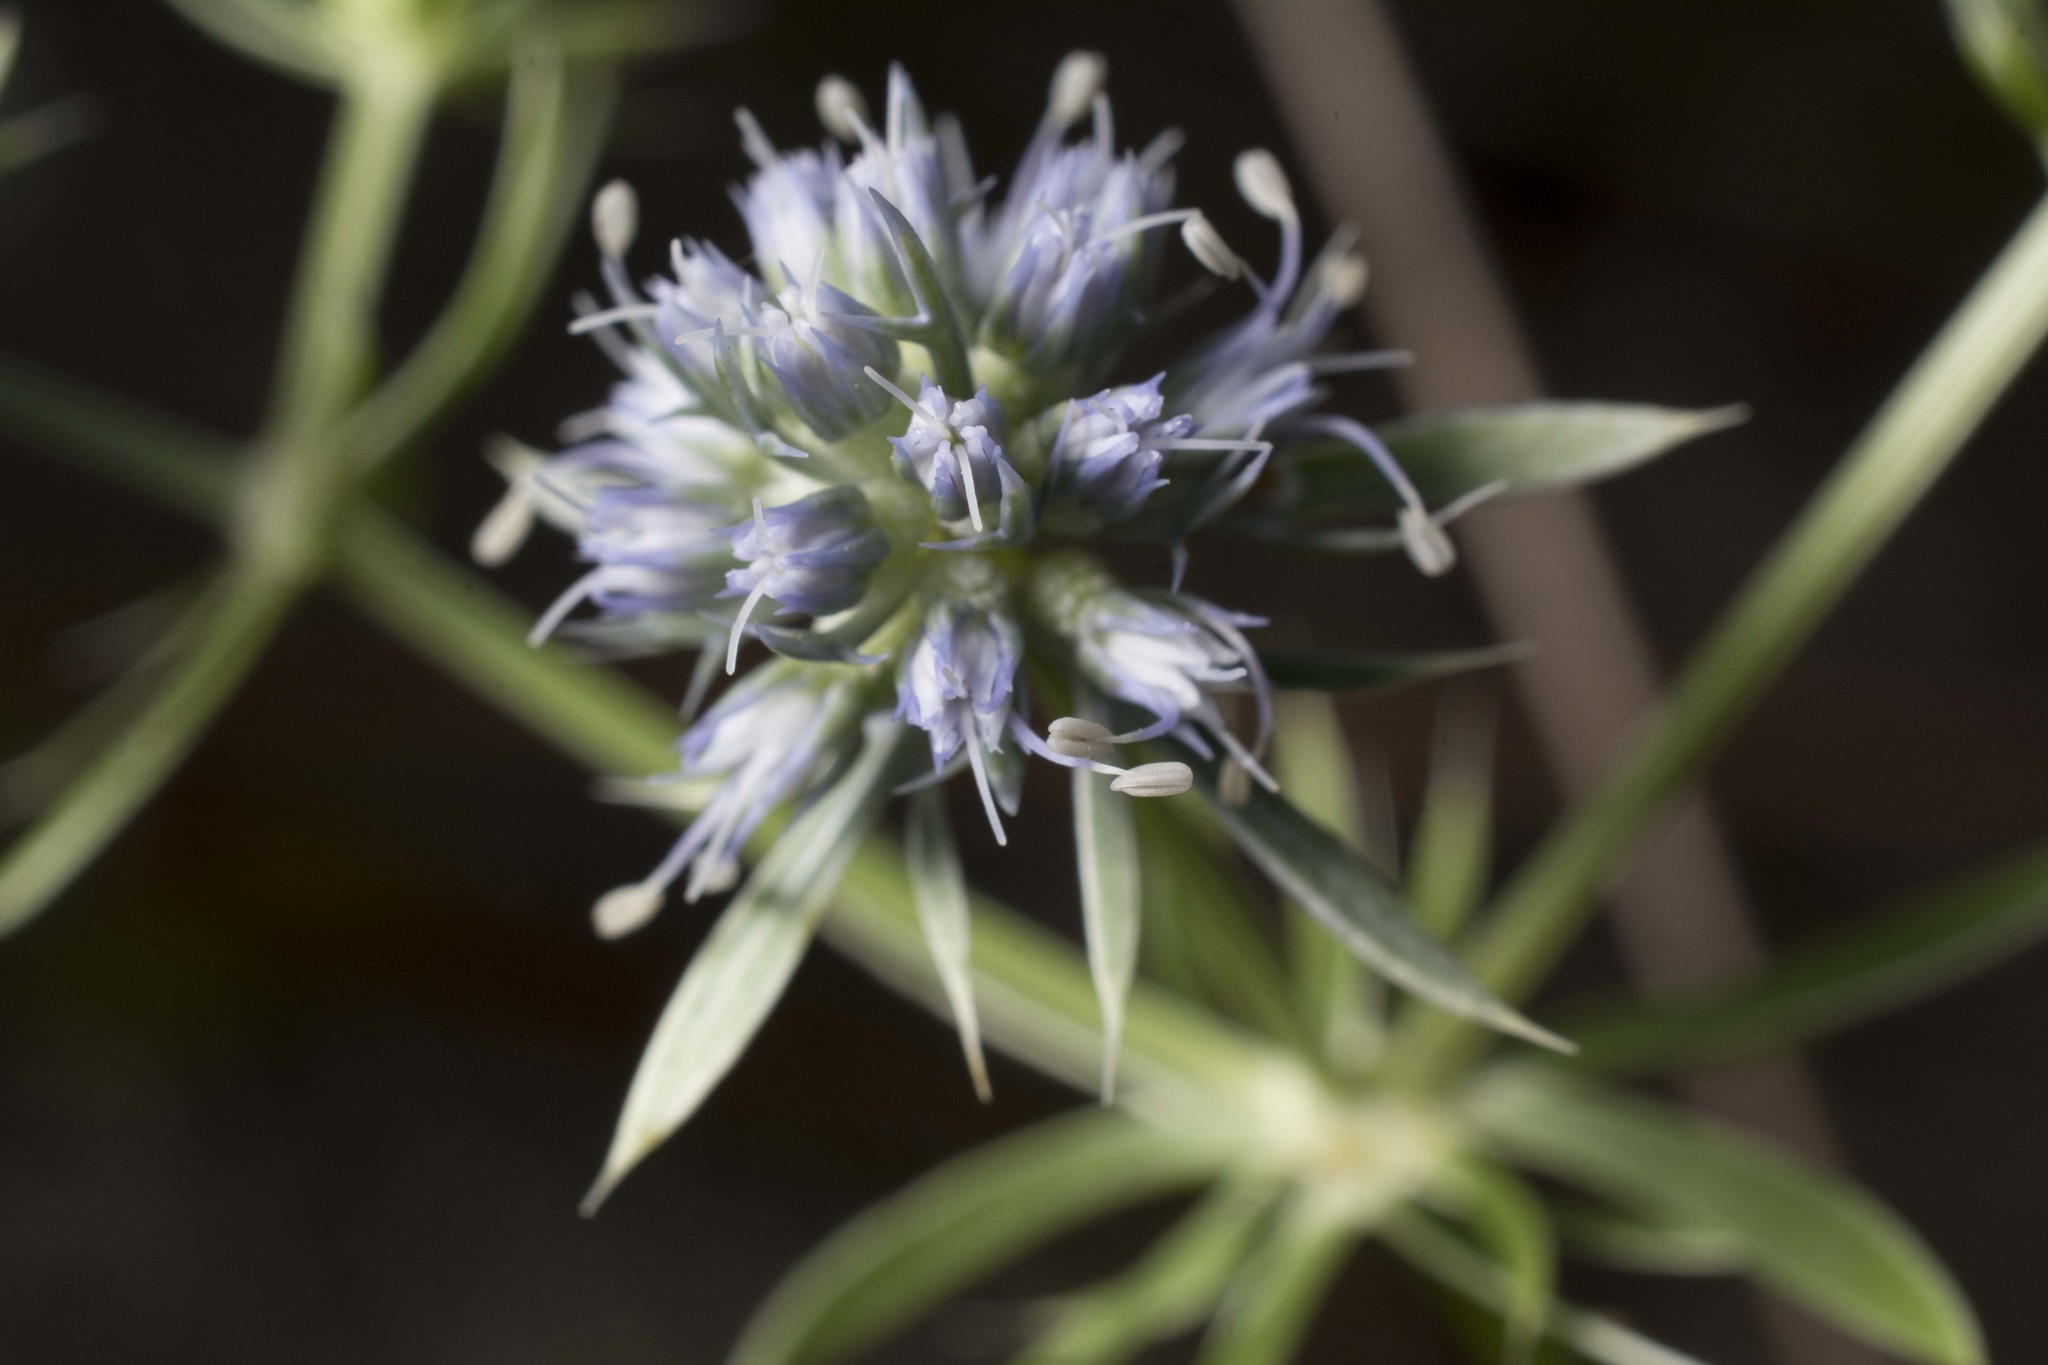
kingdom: Plantae
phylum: Tracheophyta
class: Magnoliopsida
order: Apiales
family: Apiaceae
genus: Eryngium
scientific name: Eryngium aromaticum
